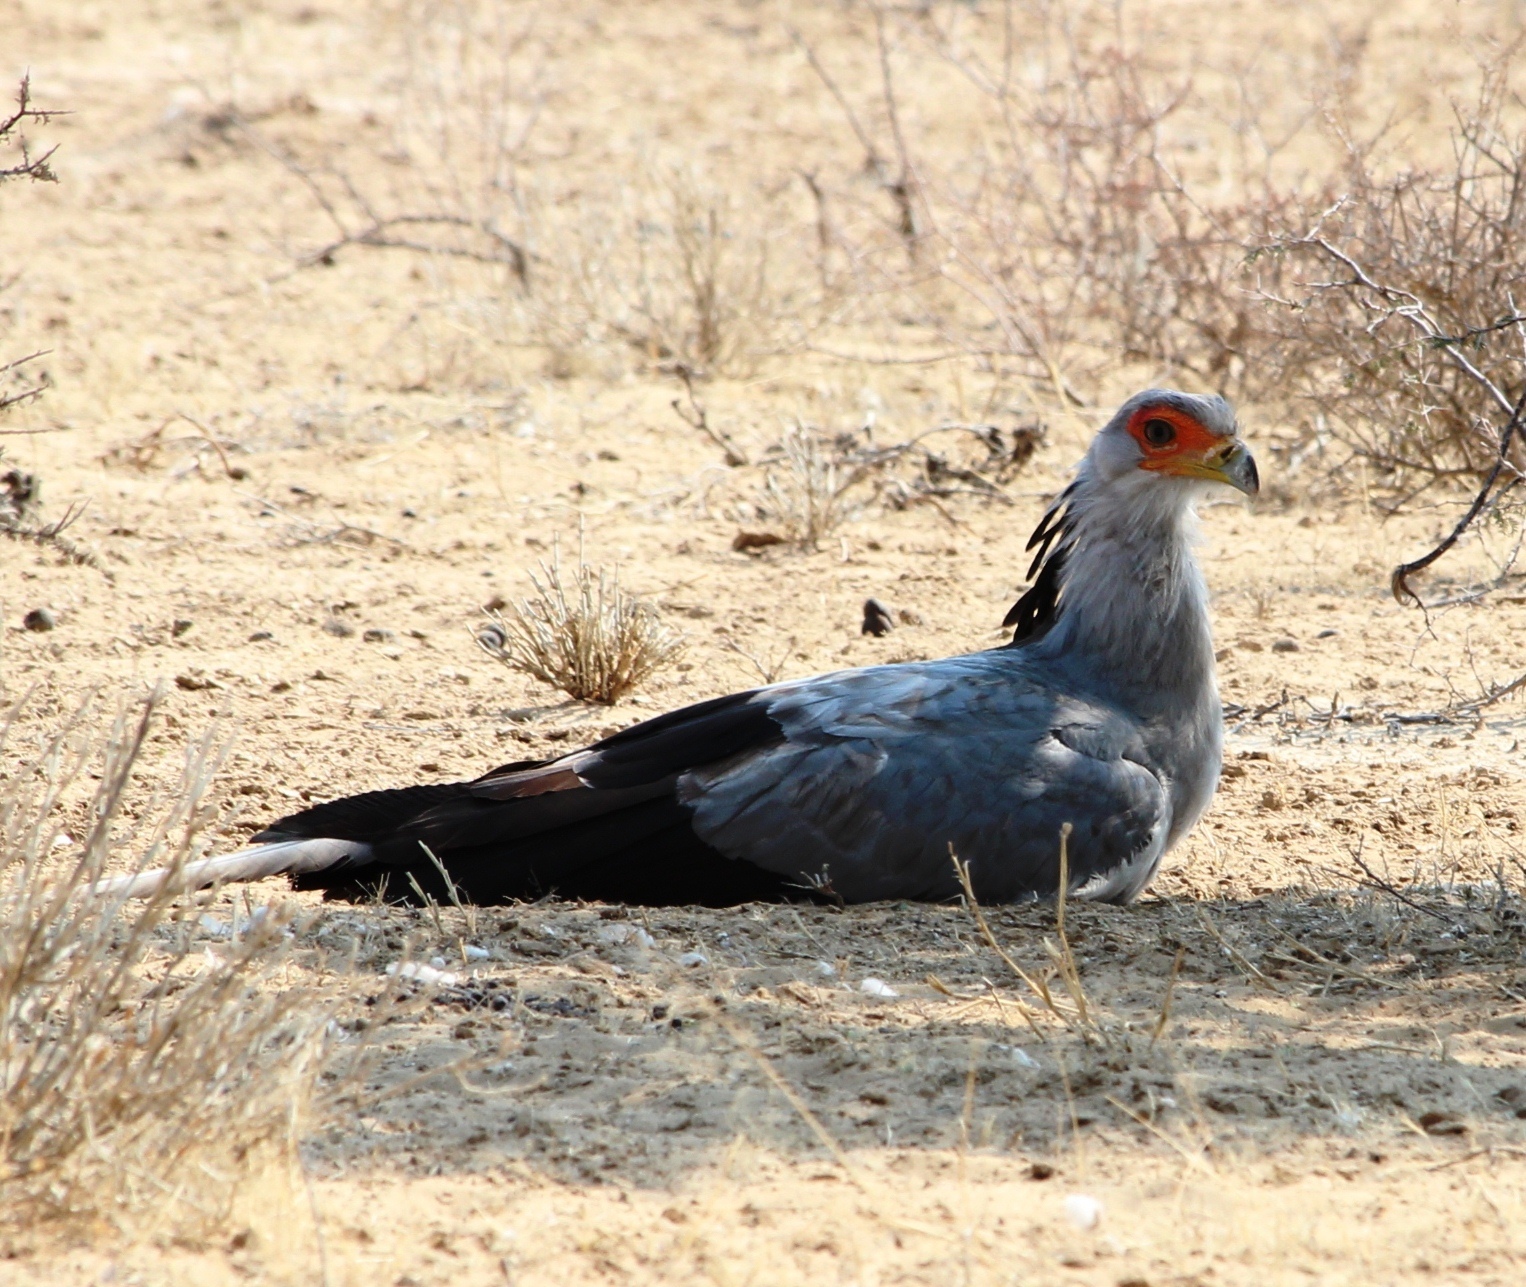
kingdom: Animalia
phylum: Chordata
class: Aves
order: Accipitriformes
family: Sagittariidae
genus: Sagittarius
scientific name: Sagittarius serpentarius
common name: Secretarybird
